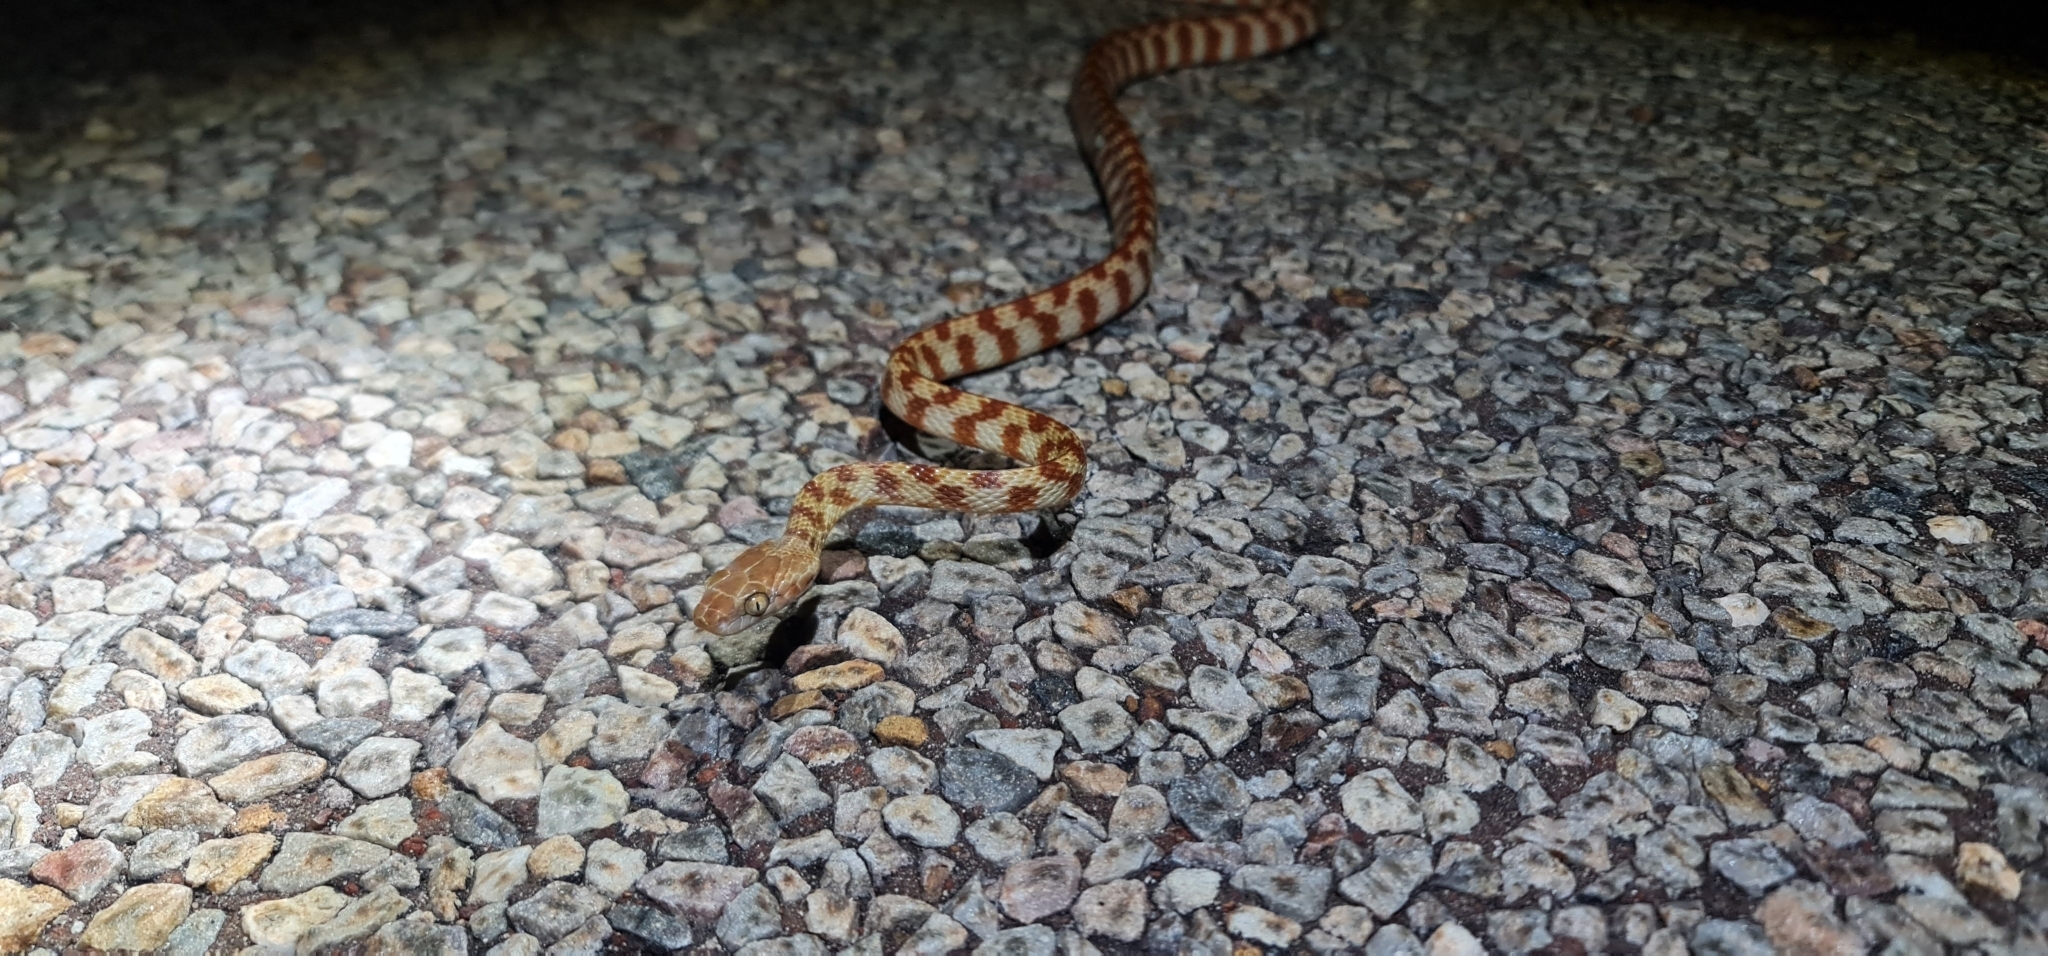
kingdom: Animalia
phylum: Chordata
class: Squamata
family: Colubridae
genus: Boiga
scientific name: Boiga irregularis
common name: Brown tree snake
